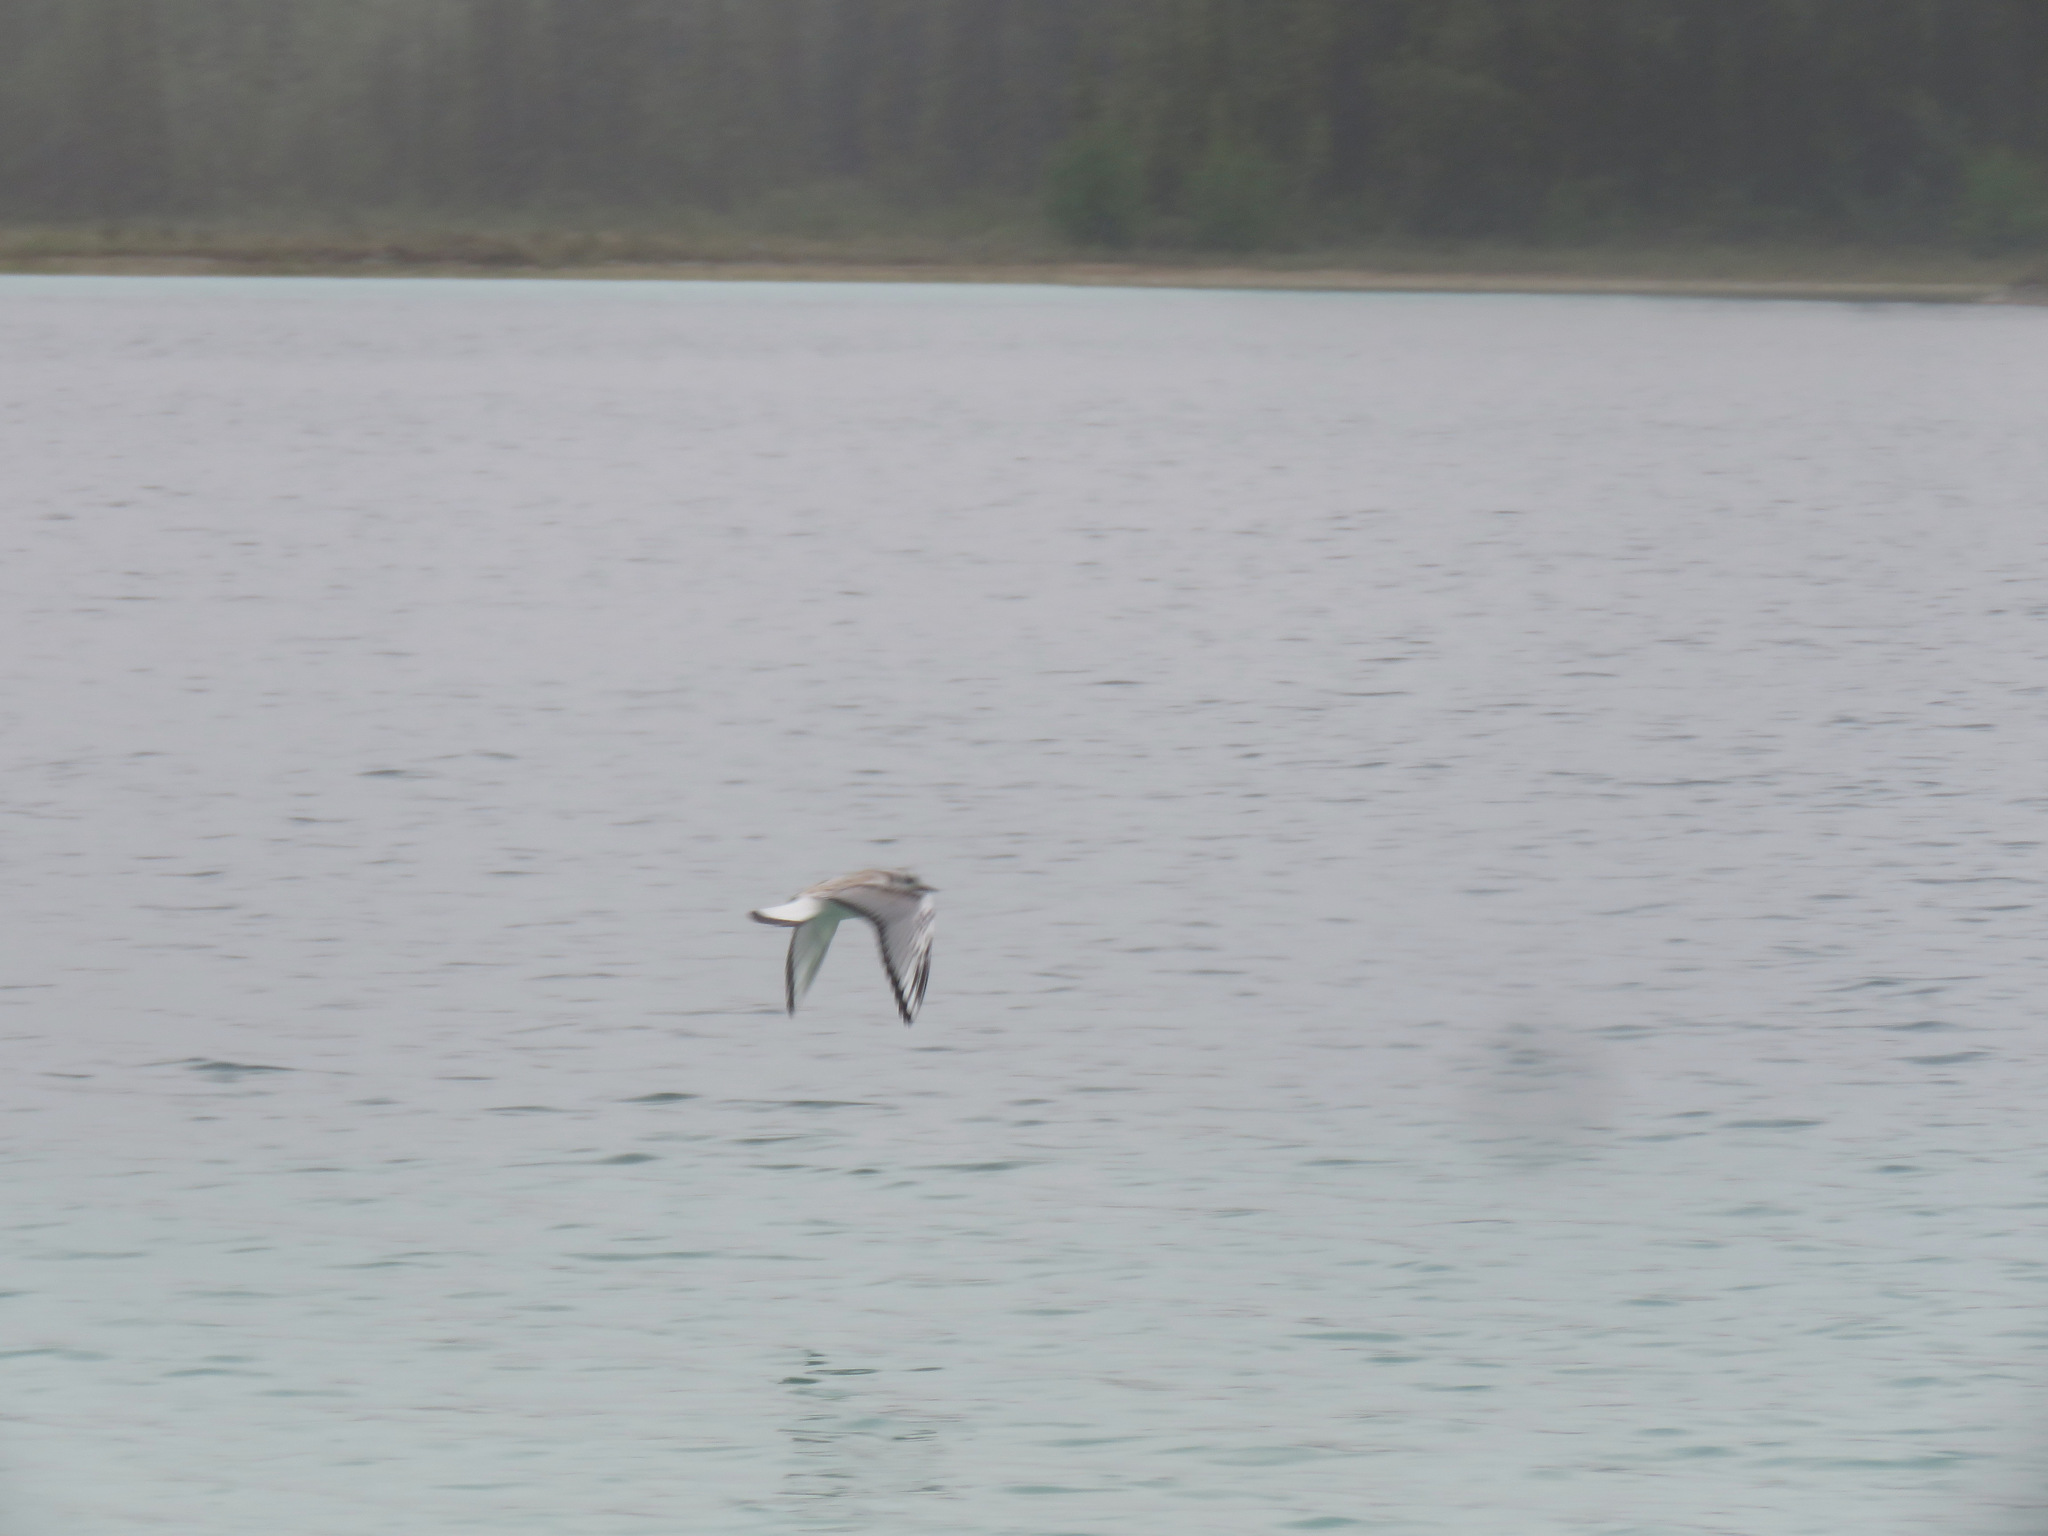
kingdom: Animalia
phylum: Chordata
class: Aves
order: Charadriiformes
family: Laridae
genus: Chroicocephalus
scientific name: Chroicocephalus philadelphia
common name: Bonaparte's gull
